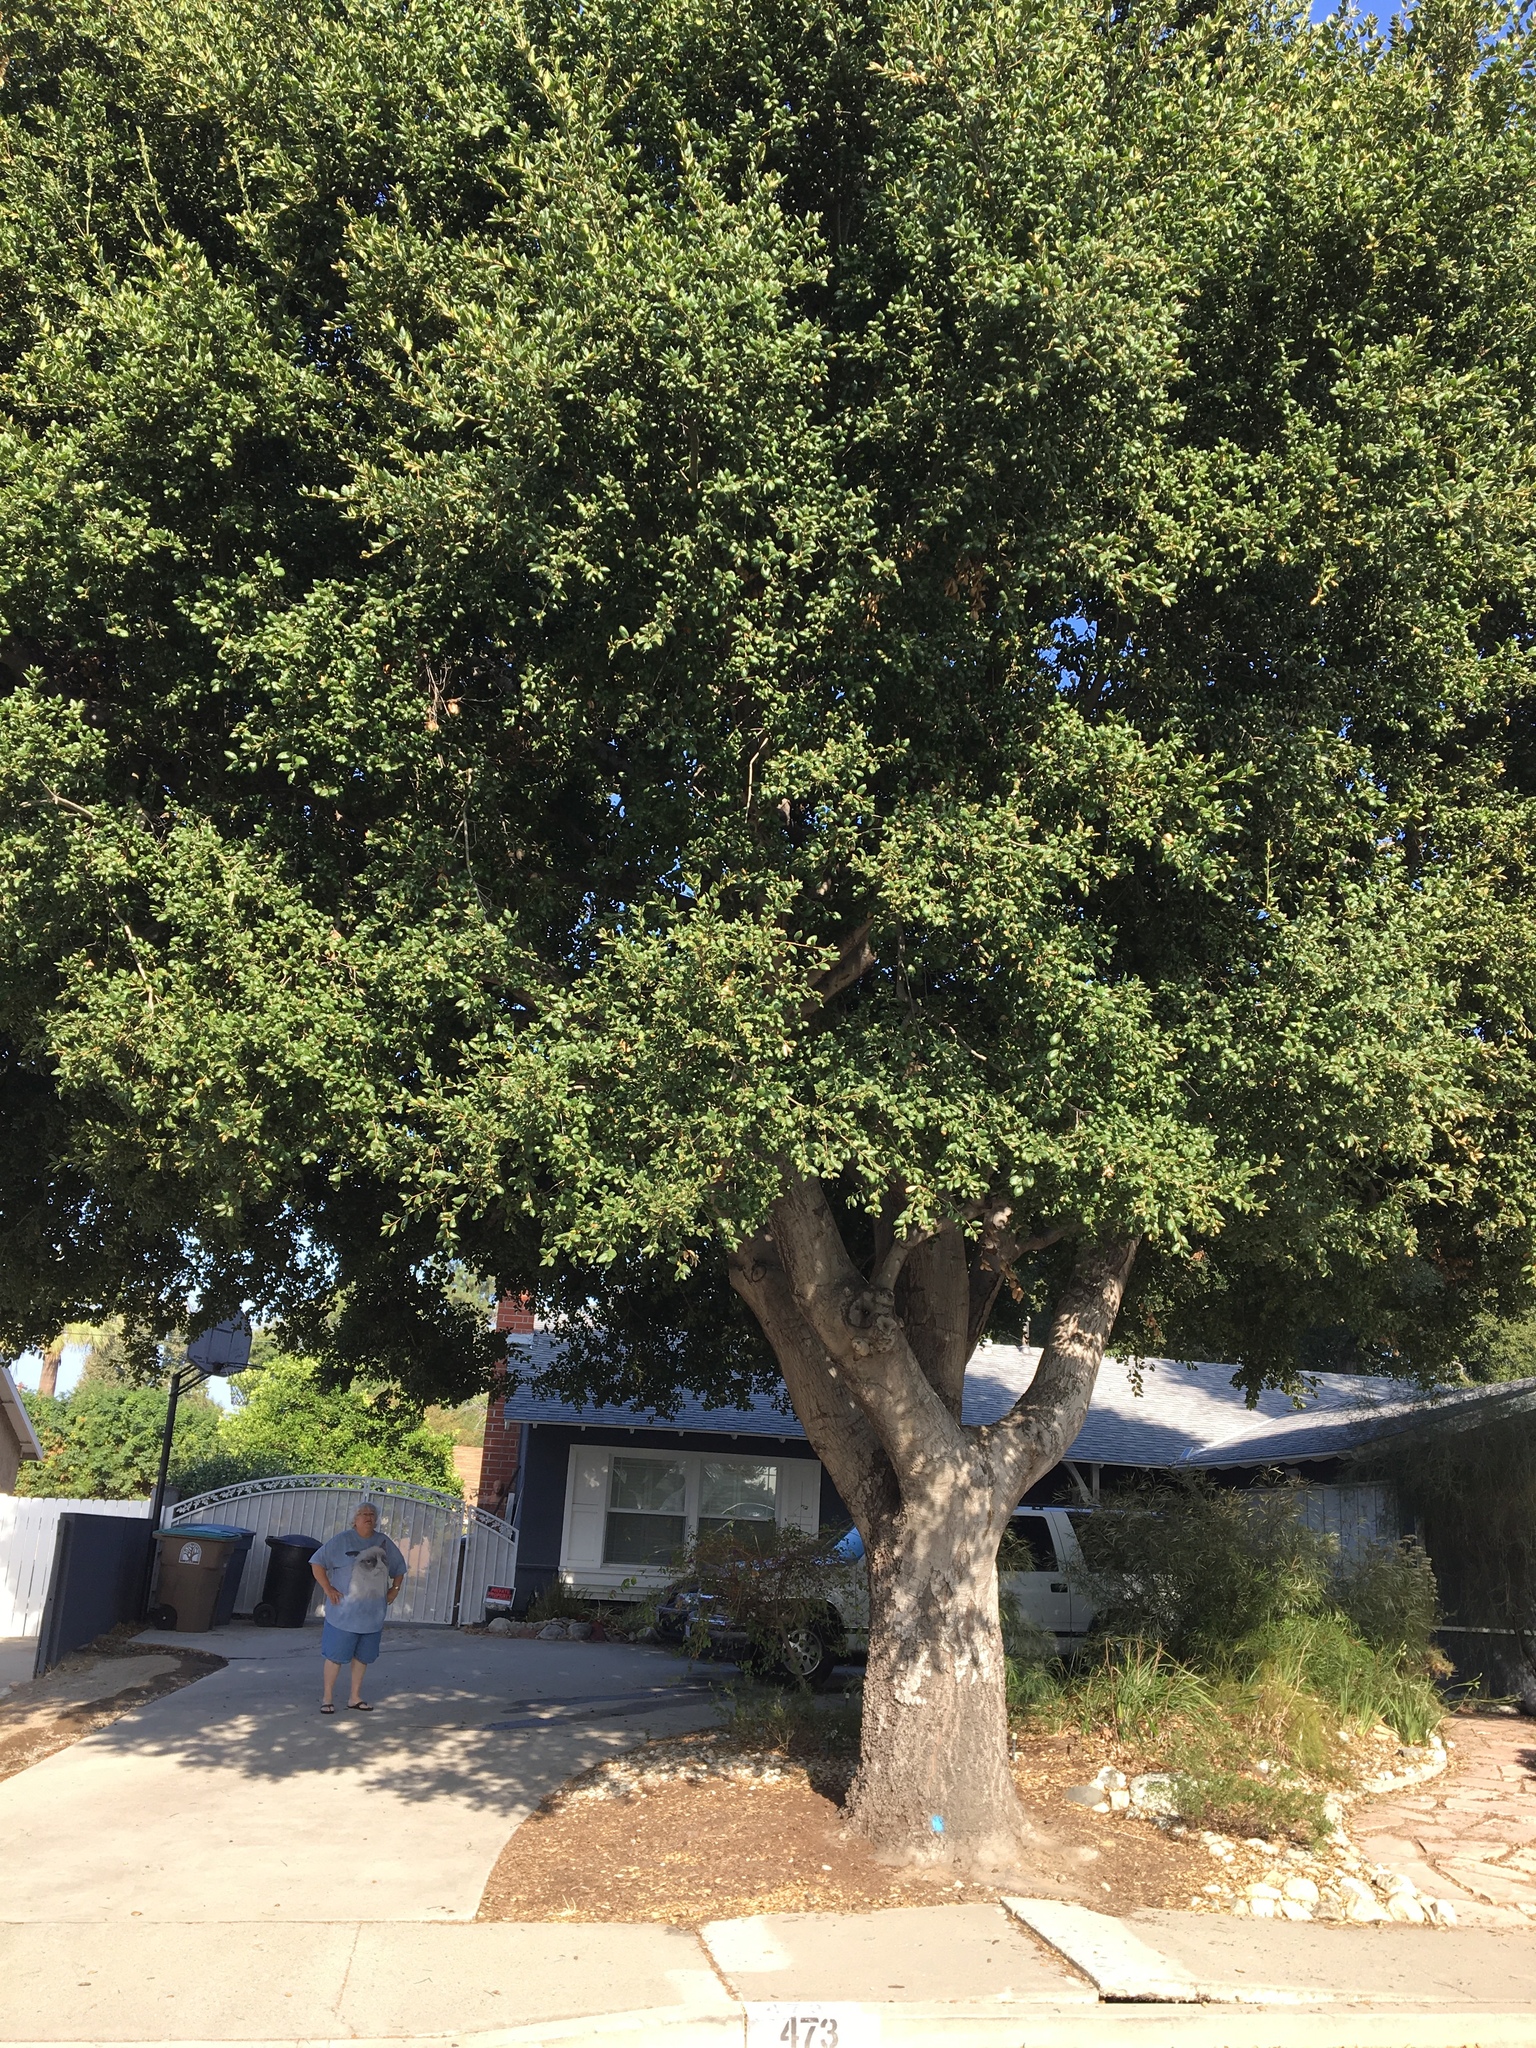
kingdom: Plantae
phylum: Tracheophyta
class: Magnoliopsida
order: Fagales
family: Fagaceae
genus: Quercus
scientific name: Quercus agrifolia
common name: California live oak
